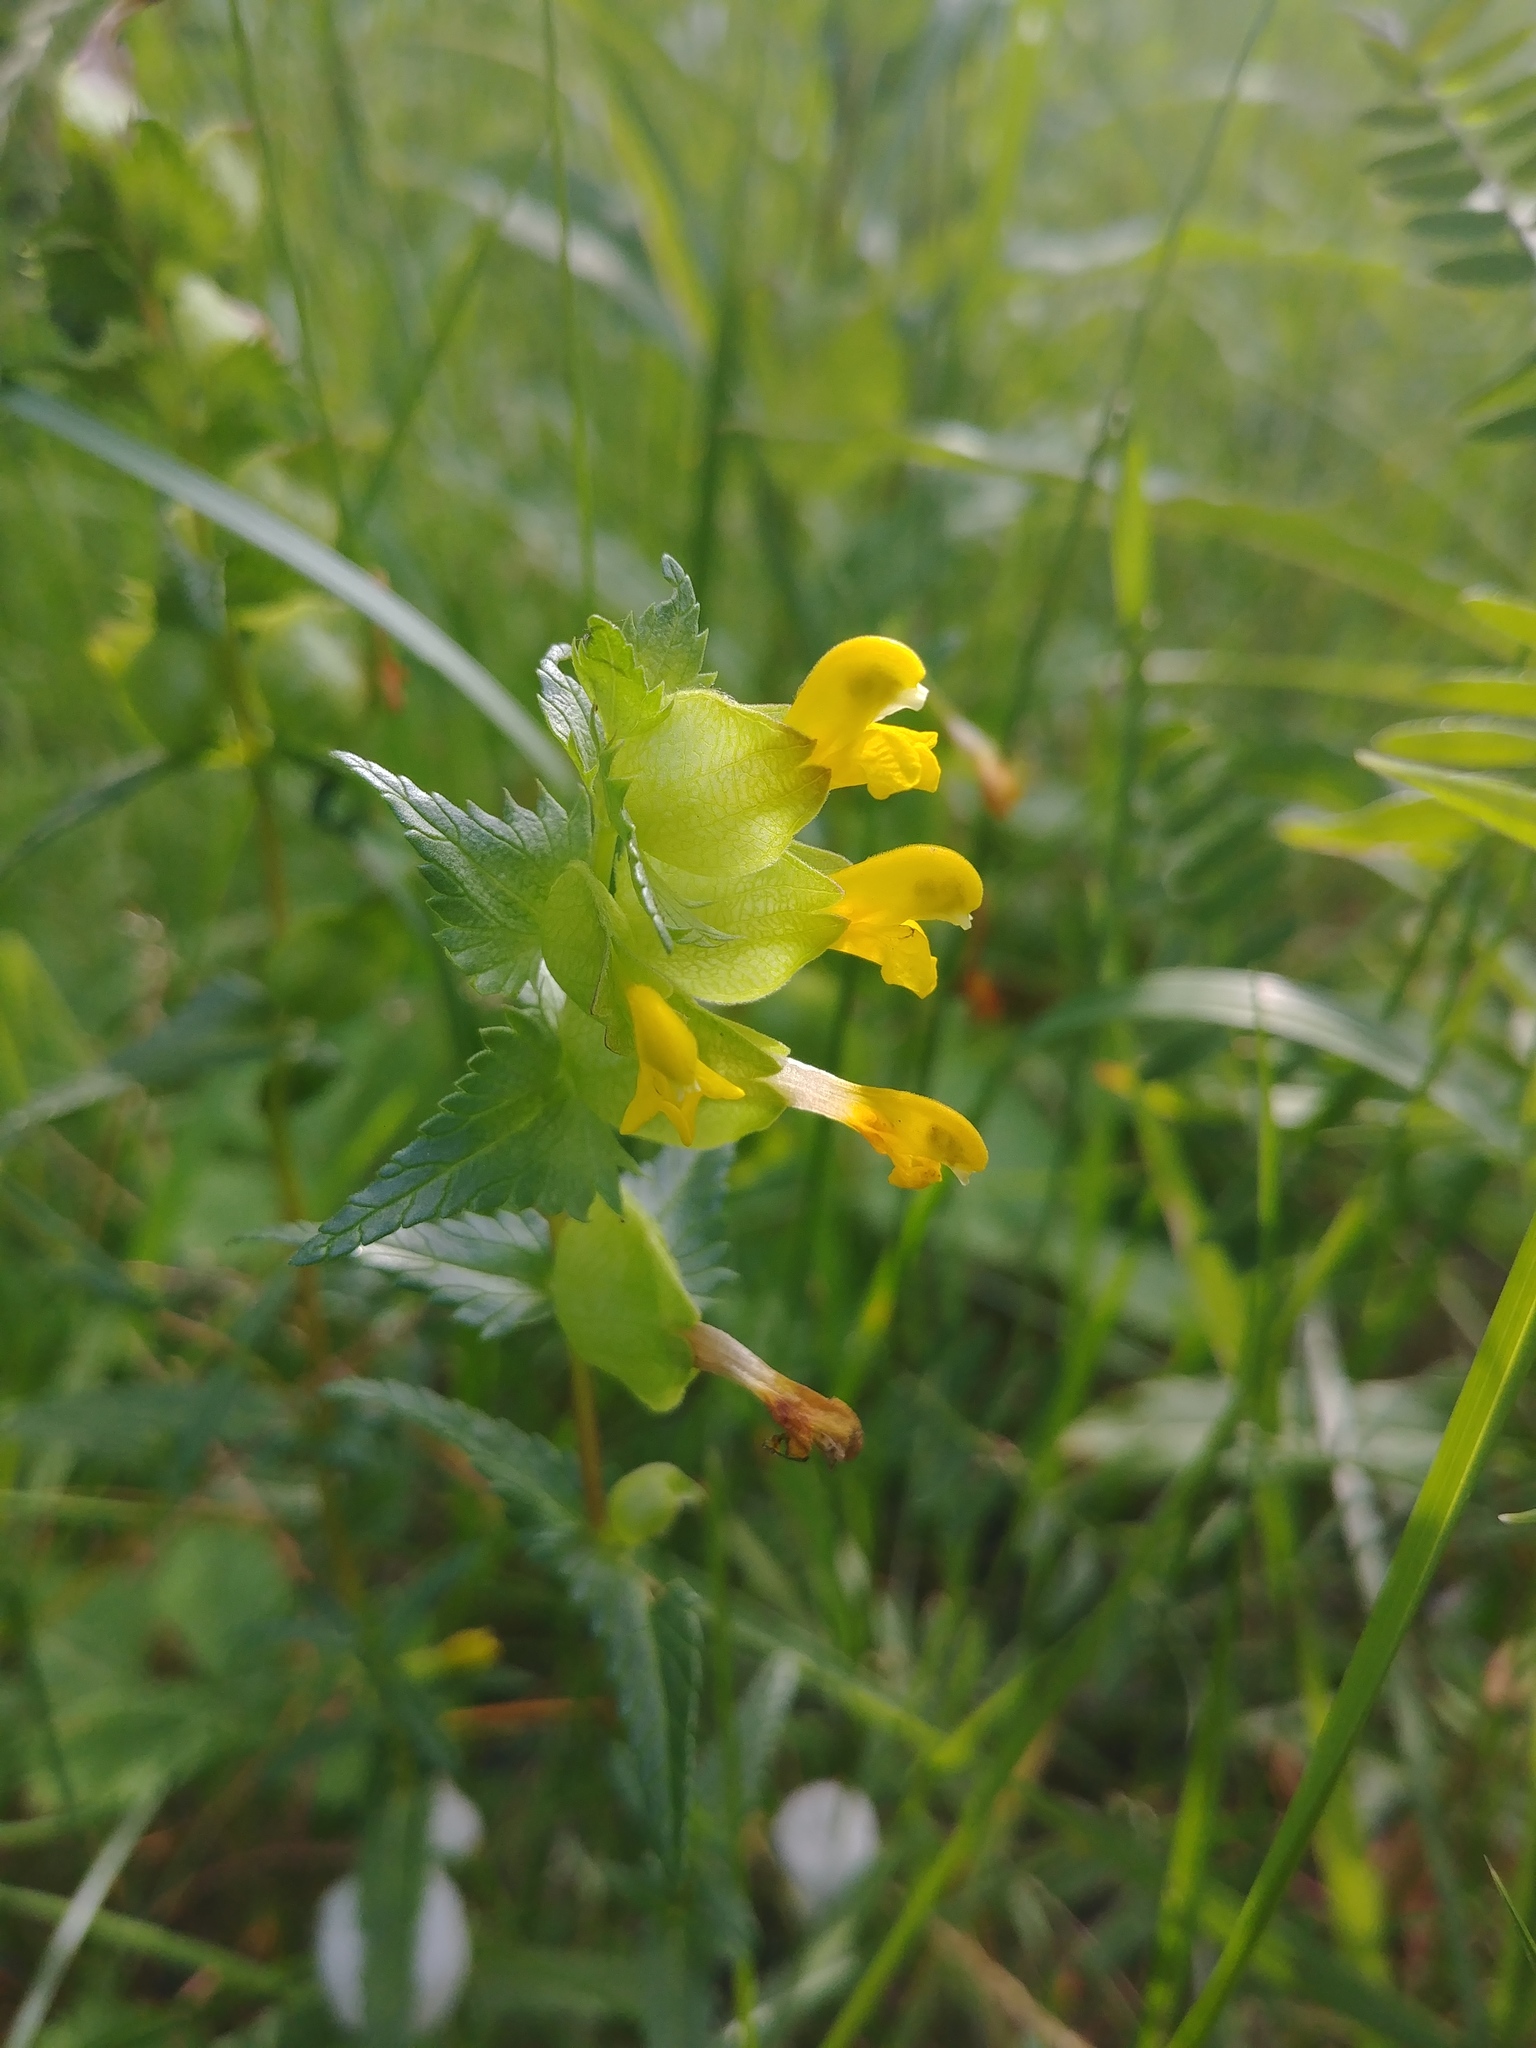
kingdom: Plantae
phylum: Tracheophyta
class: Magnoliopsida
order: Lamiales
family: Orobanchaceae
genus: Rhinanthus
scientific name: Rhinanthus minor
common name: Yellow-rattle
